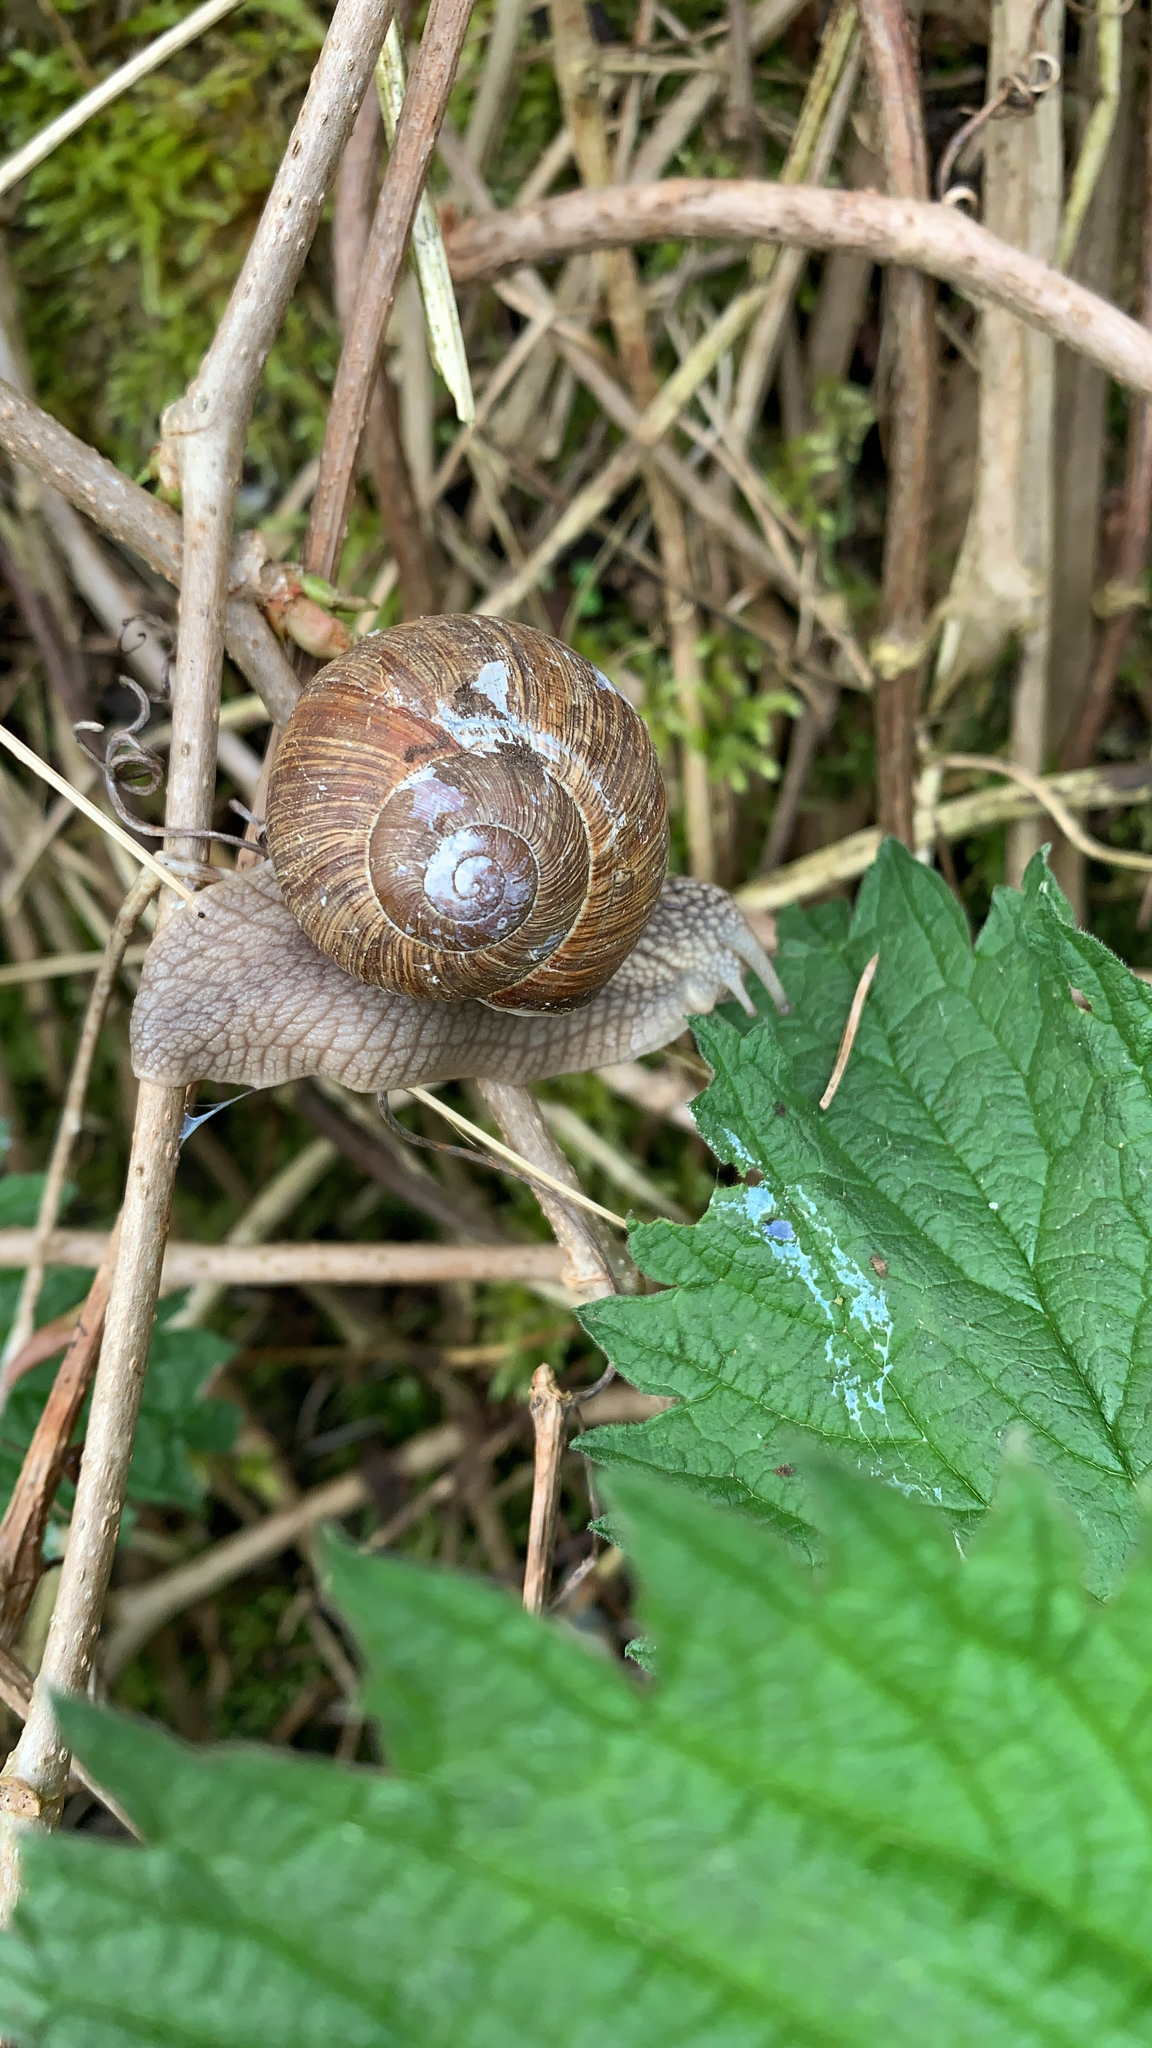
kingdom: Animalia
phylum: Mollusca
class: Gastropoda
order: Stylommatophora
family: Helicidae
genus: Helix
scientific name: Helix pomatia
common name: Roman snail
